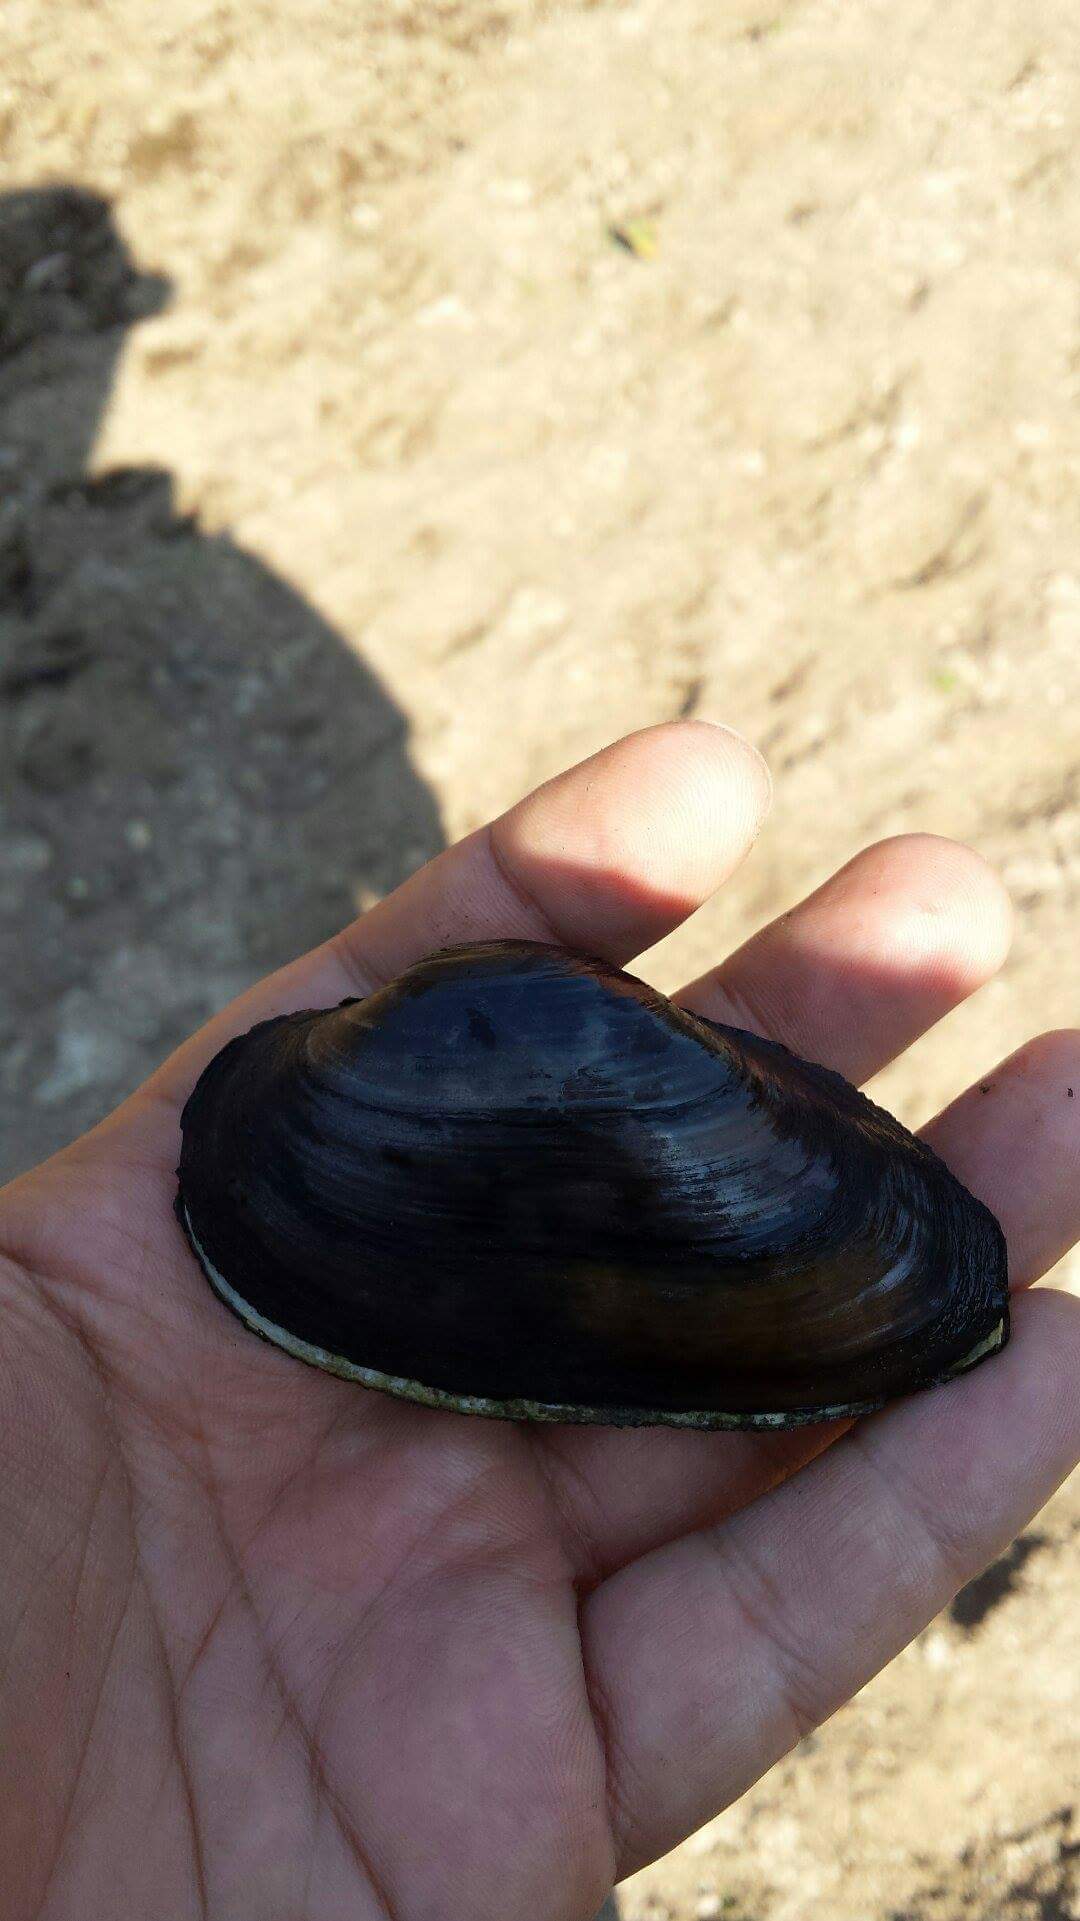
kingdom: Animalia
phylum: Mollusca
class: Bivalvia
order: Unionida
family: Unionidae
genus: Unio
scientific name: Unio tumidiformis
